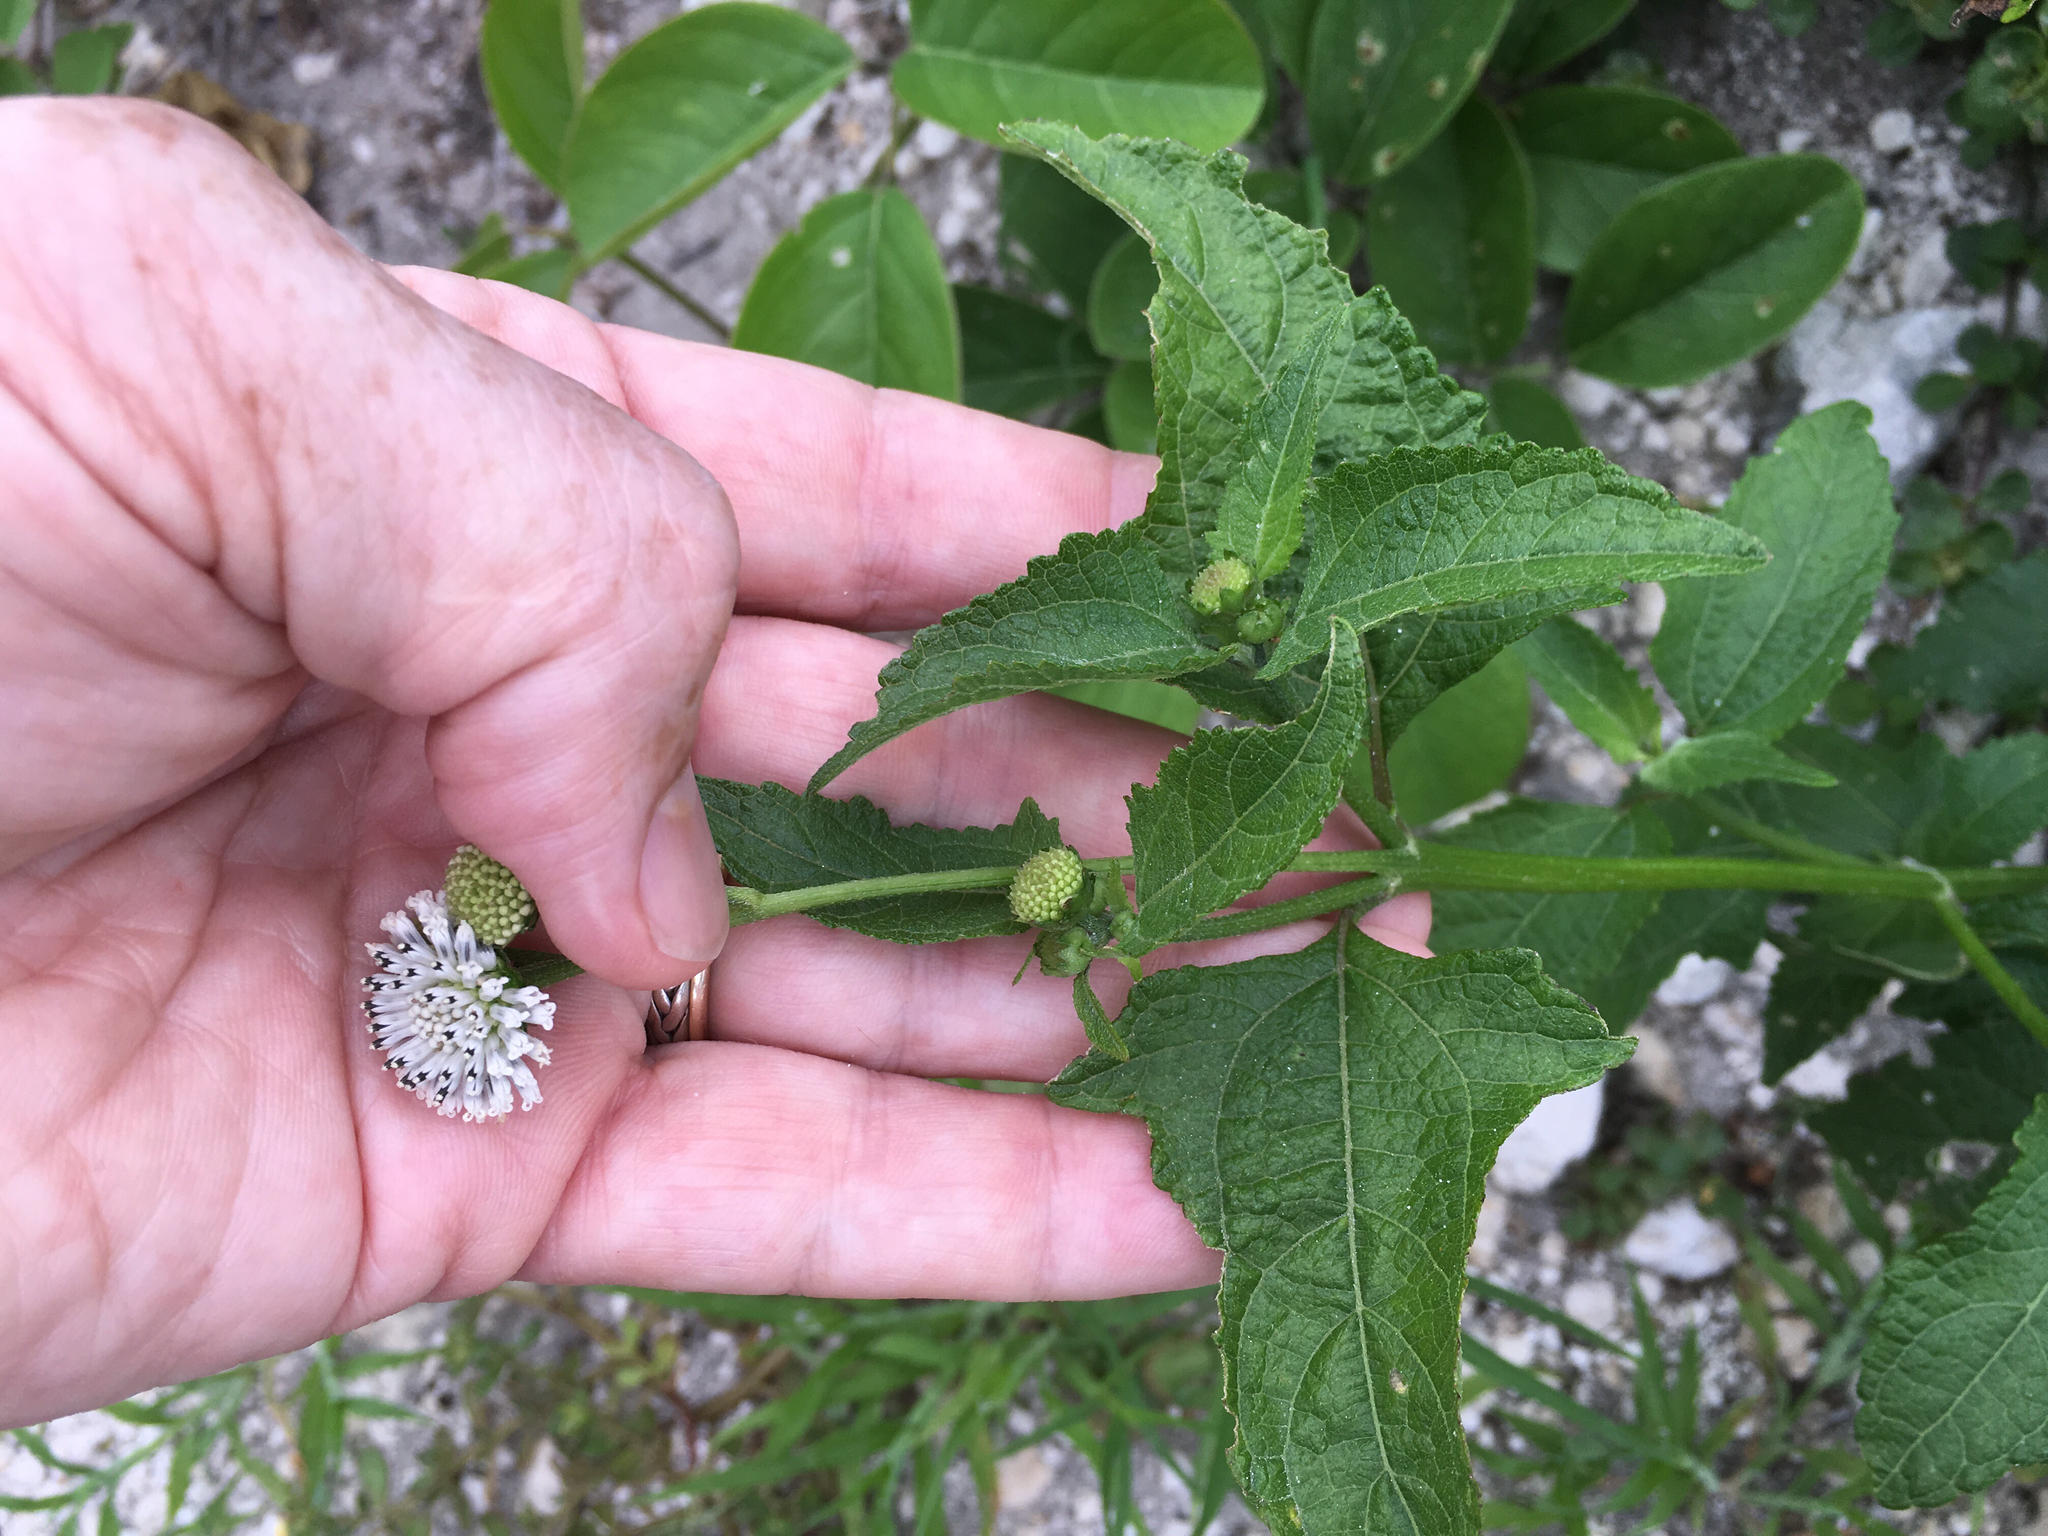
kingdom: Plantae
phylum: Tracheophyta
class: Magnoliopsida
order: Asterales
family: Asteraceae
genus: Melanthera
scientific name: Melanthera nivea
